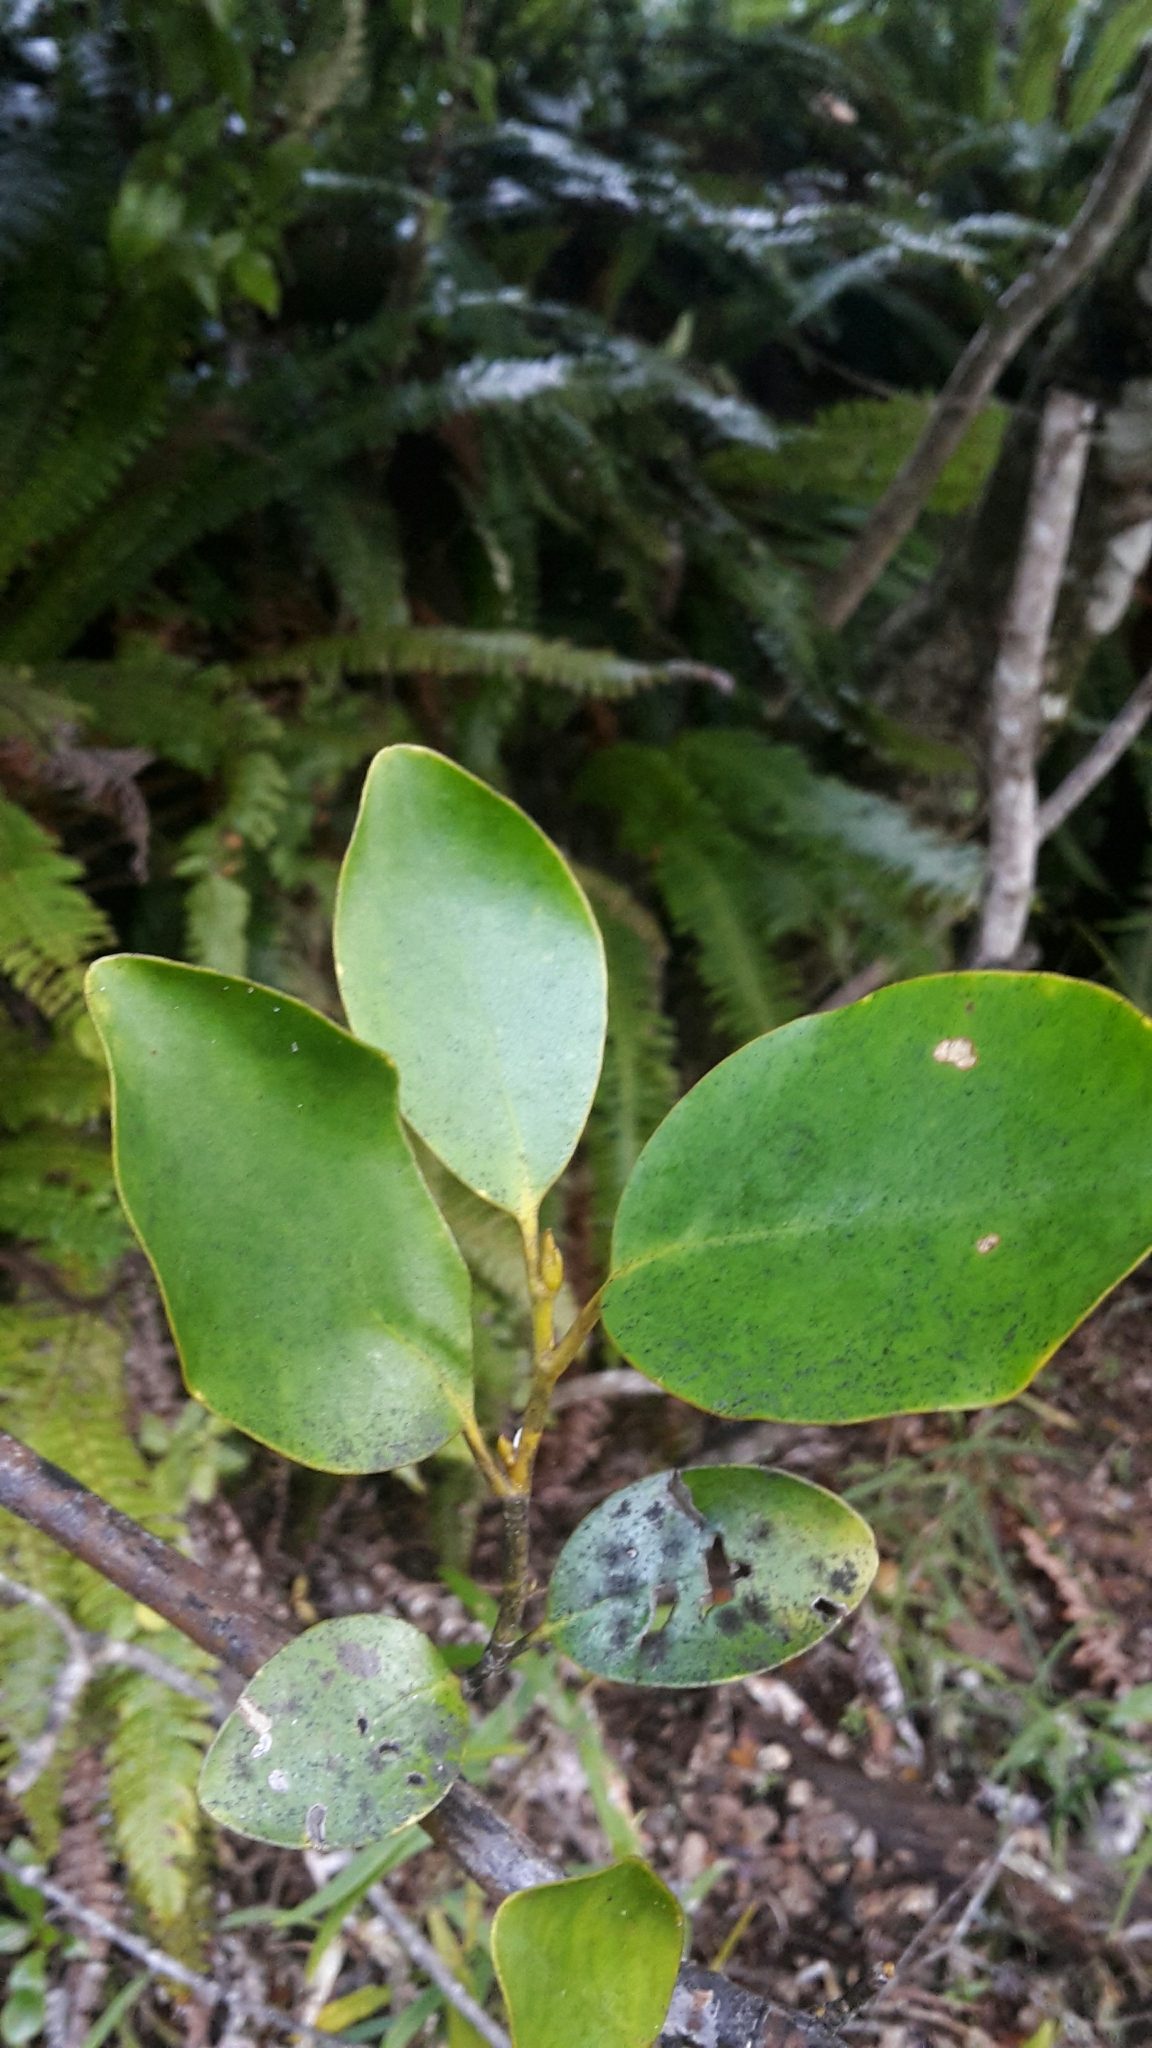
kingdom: Plantae
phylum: Tracheophyta
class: Magnoliopsida
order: Apiales
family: Griseliniaceae
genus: Griselinia
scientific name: Griselinia littoralis
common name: New zealand broadleaf
